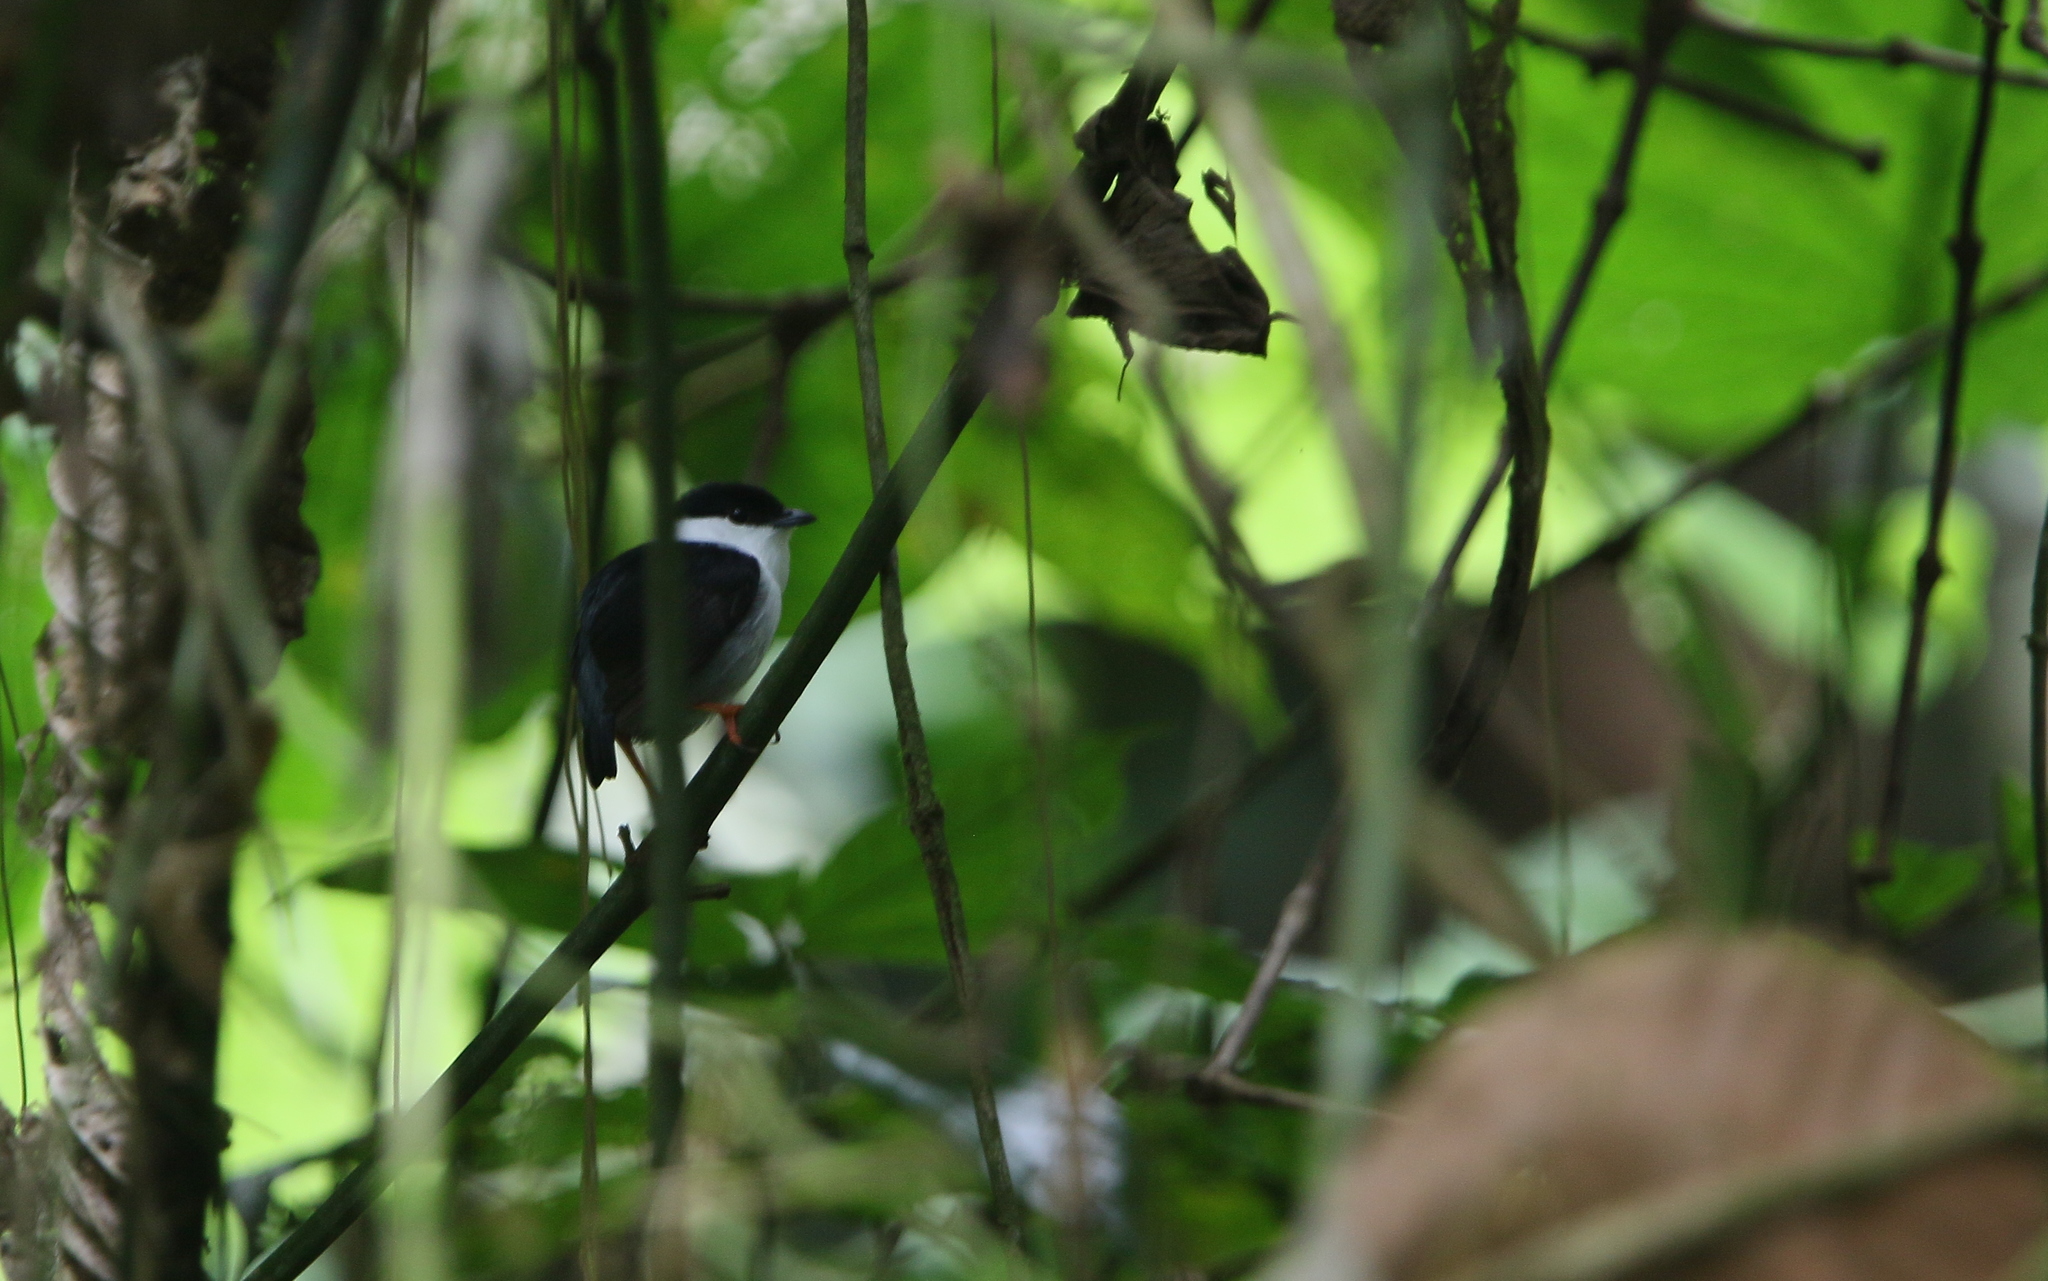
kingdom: Animalia
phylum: Chordata
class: Aves
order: Passeriformes
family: Pipridae
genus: Manacus
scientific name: Manacus manacus
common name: White-bearded manakin
